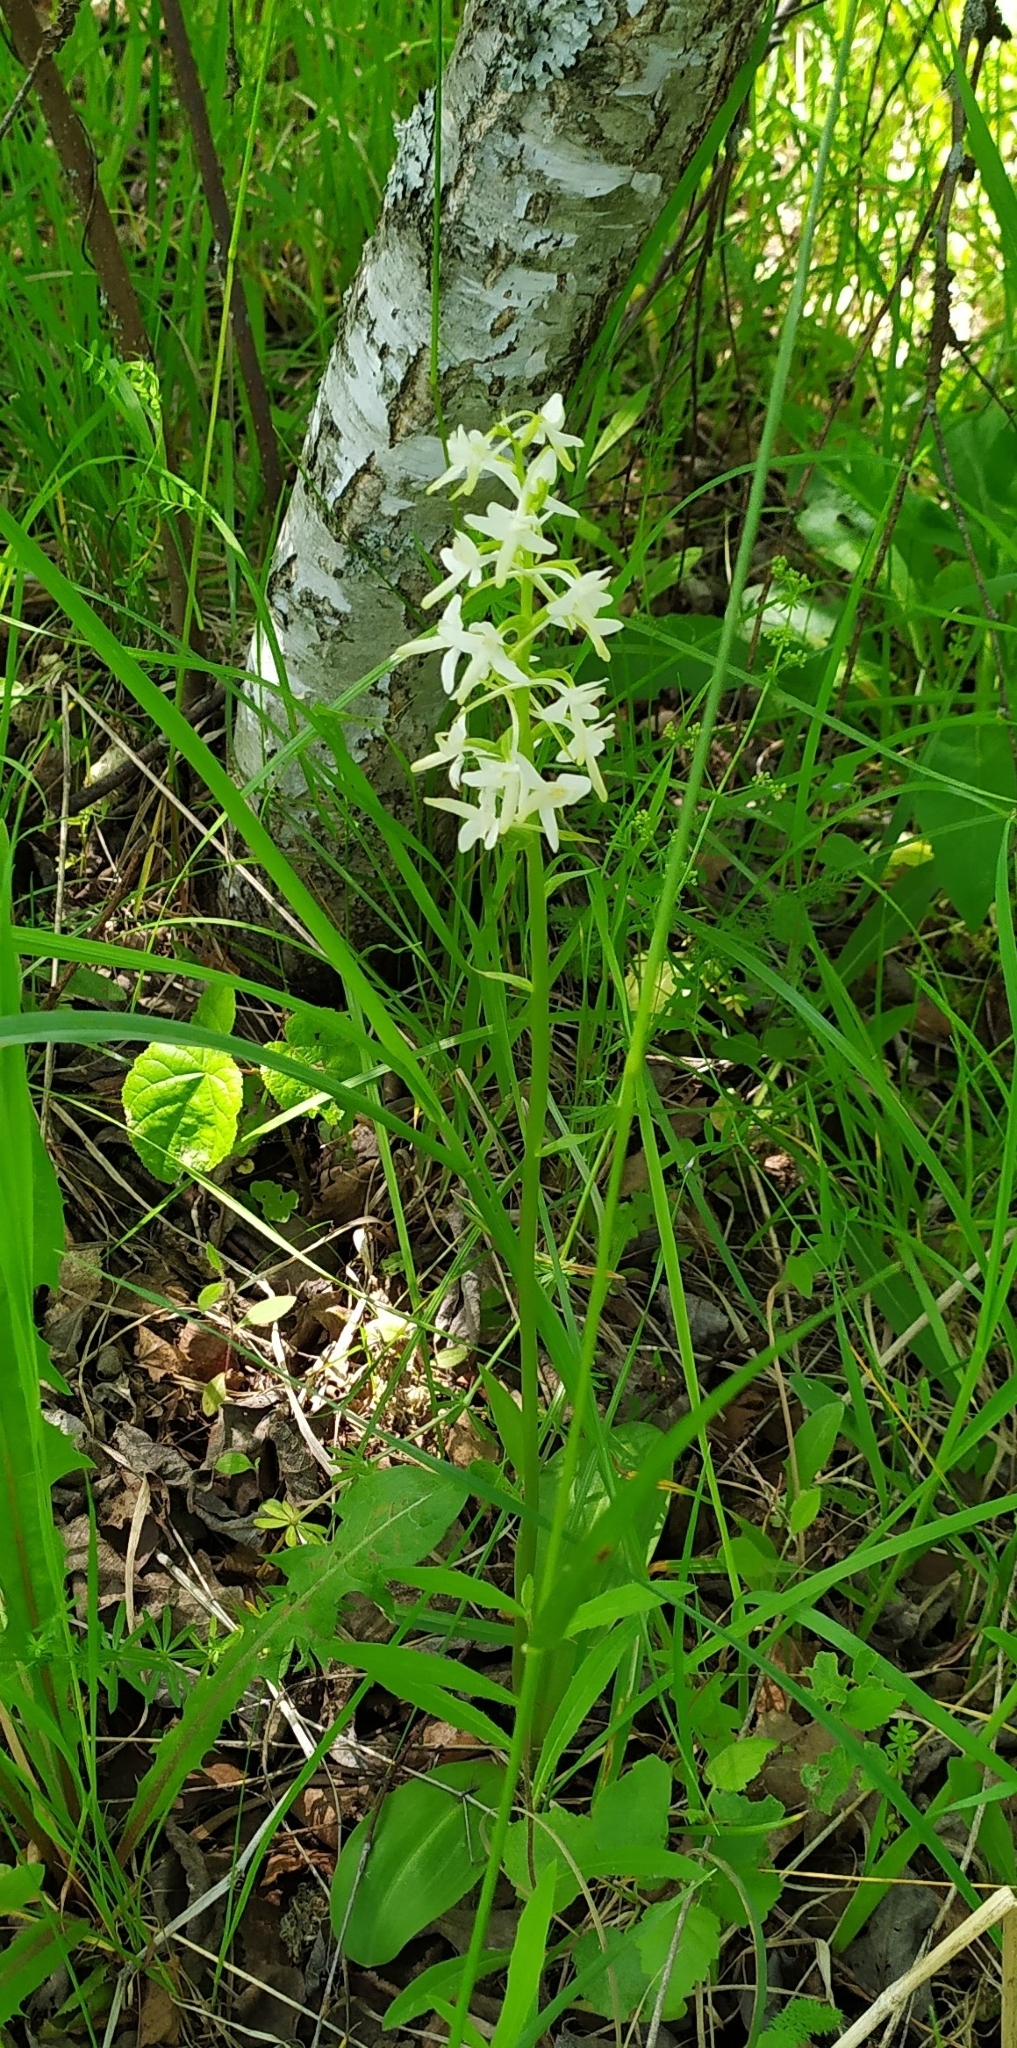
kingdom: Plantae
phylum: Tracheophyta
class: Liliopsida
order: Asparagales
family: Orchidaceae
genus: Platanthera
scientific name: Platanthera bifolia
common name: Lesser butterfly-orchid
